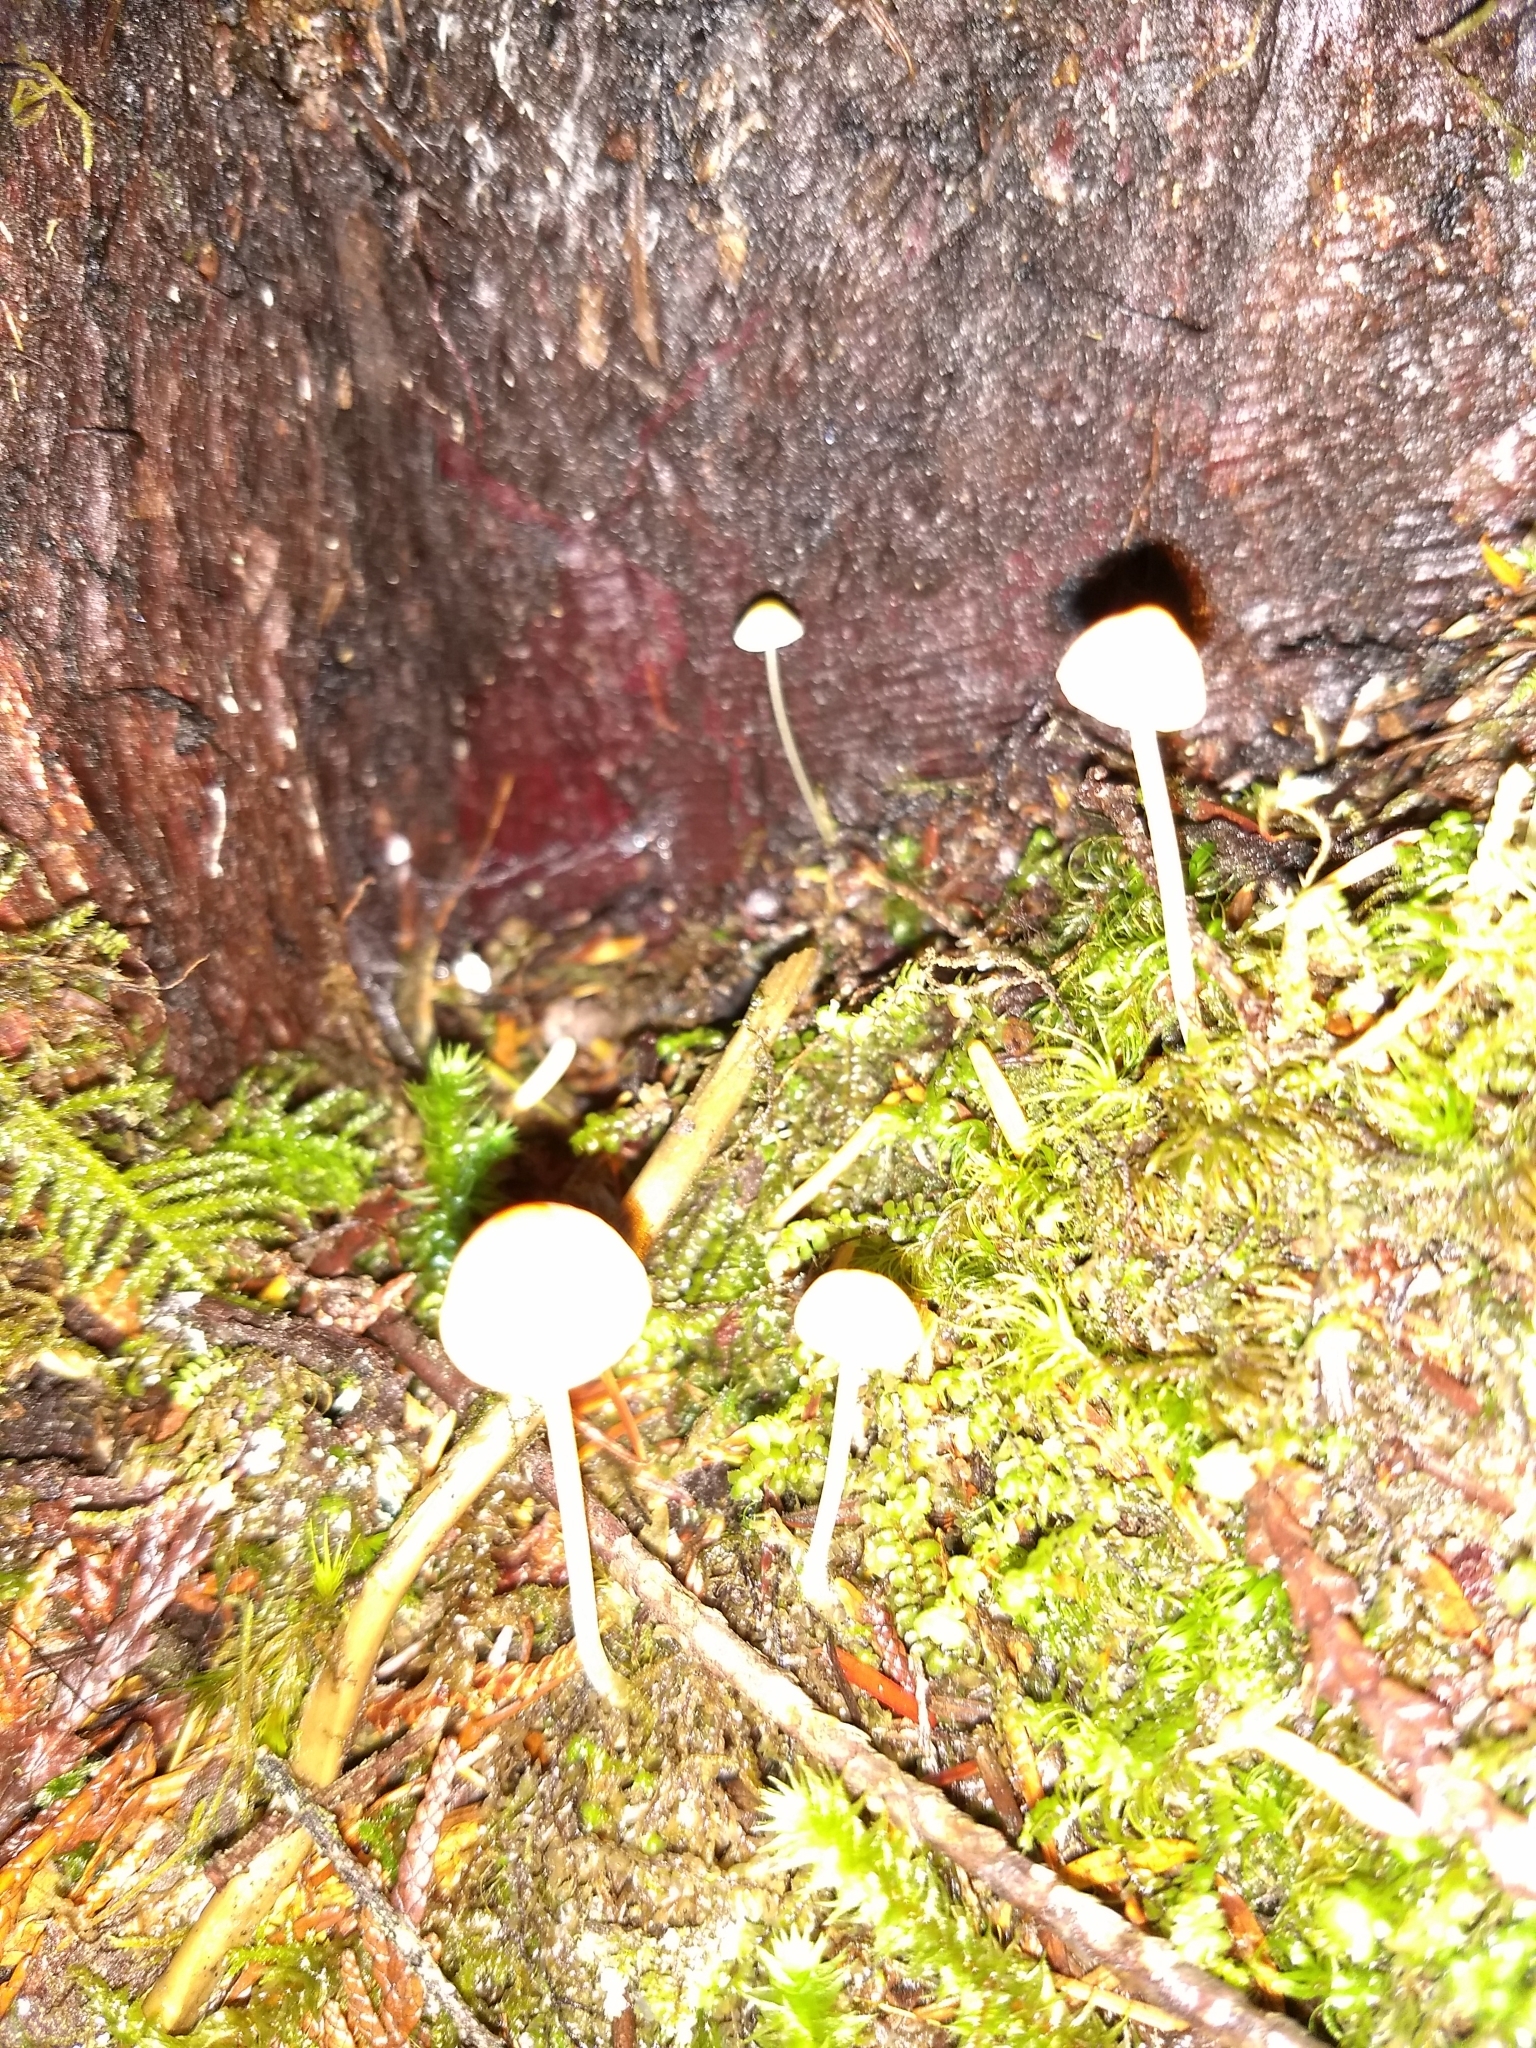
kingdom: Fungi
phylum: Basidiomycota
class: Agaricomycetes
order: Agaricales
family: Mycenaceae
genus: Atheniella
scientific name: Atheniella aurantiidisca
